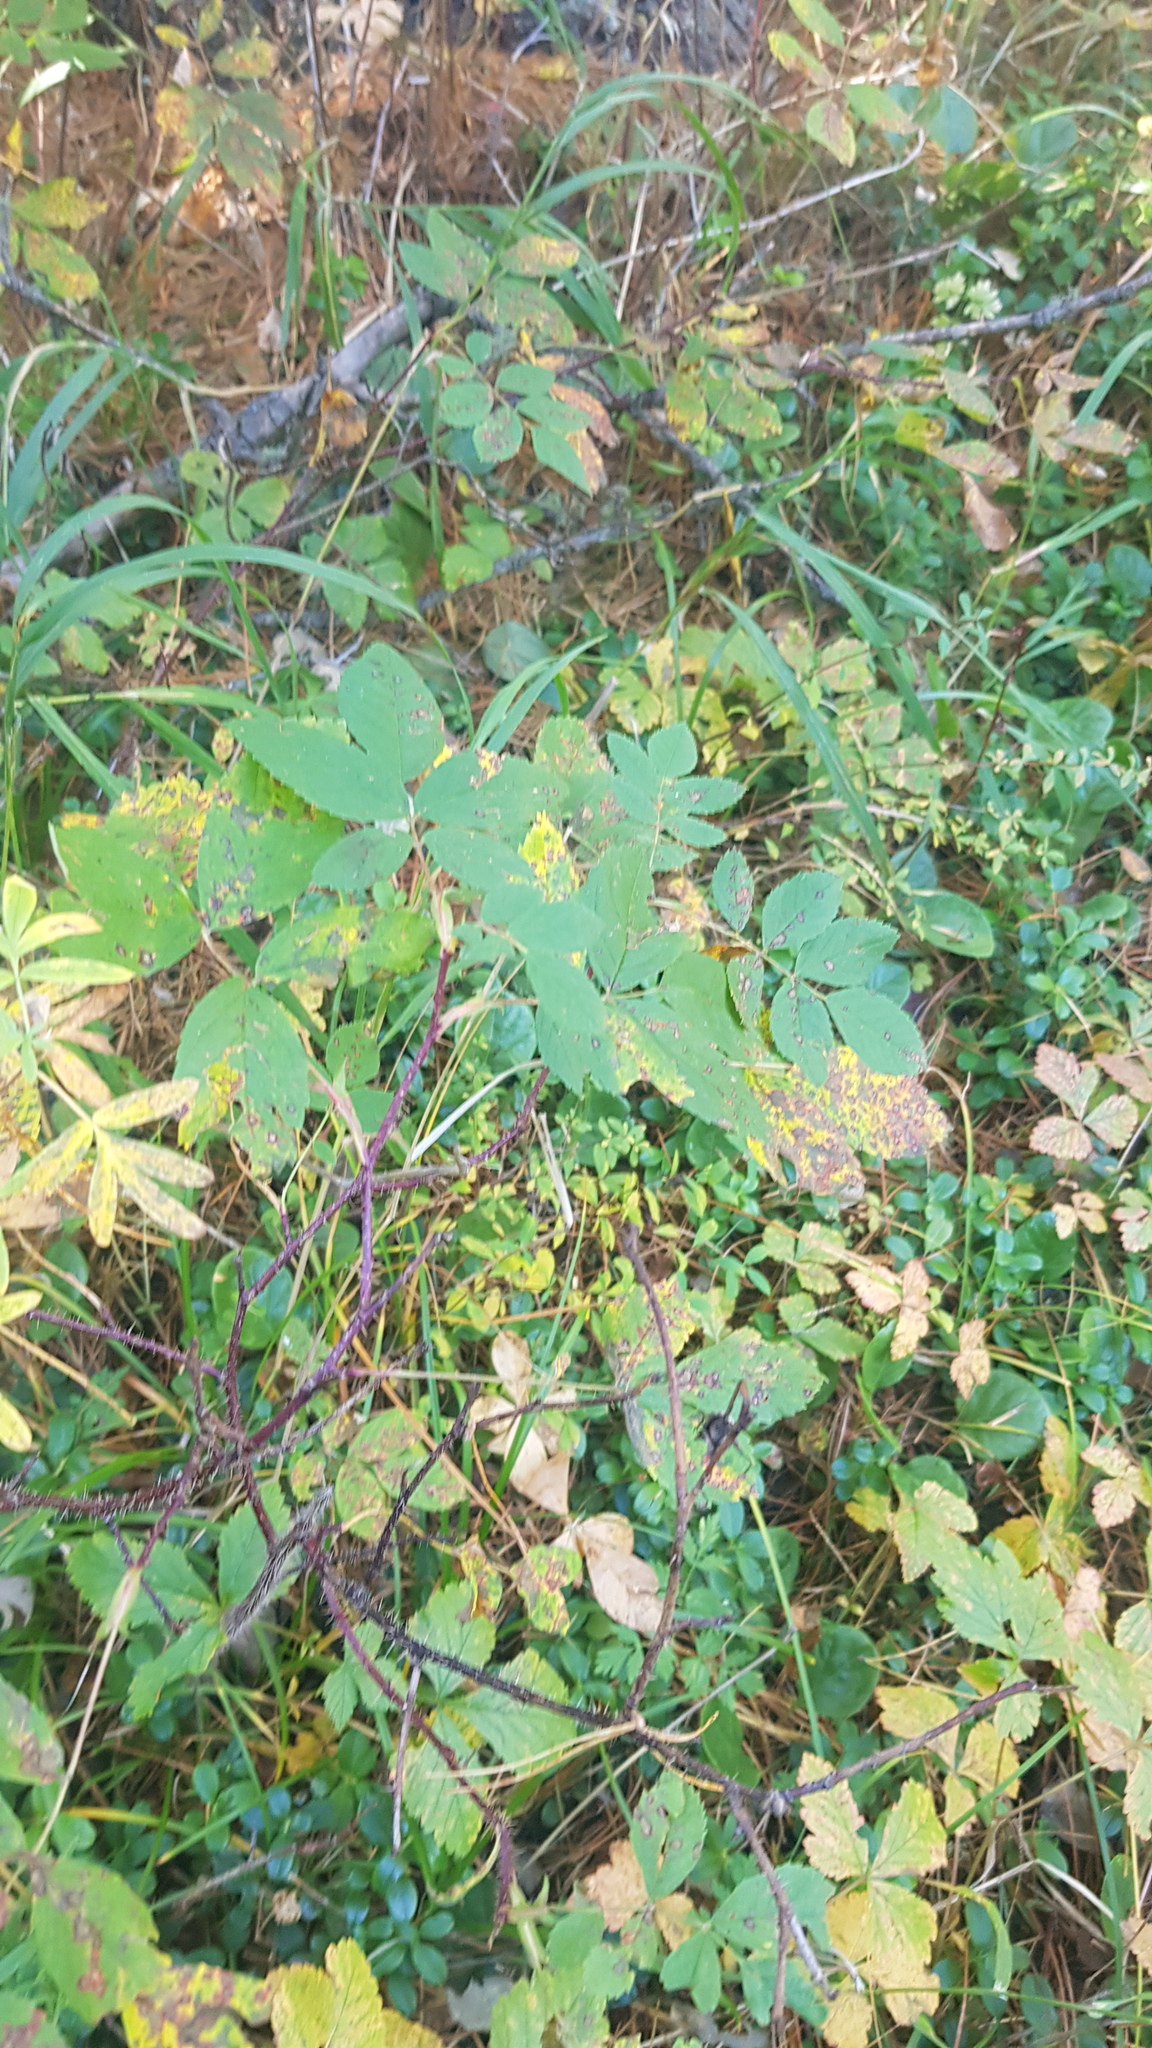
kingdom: Plantae
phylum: Tracheophyta
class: Magnoliopsida
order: Rosales
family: Rosaceae
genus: Rosa
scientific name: Rosa acicularis
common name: Prickly rose
